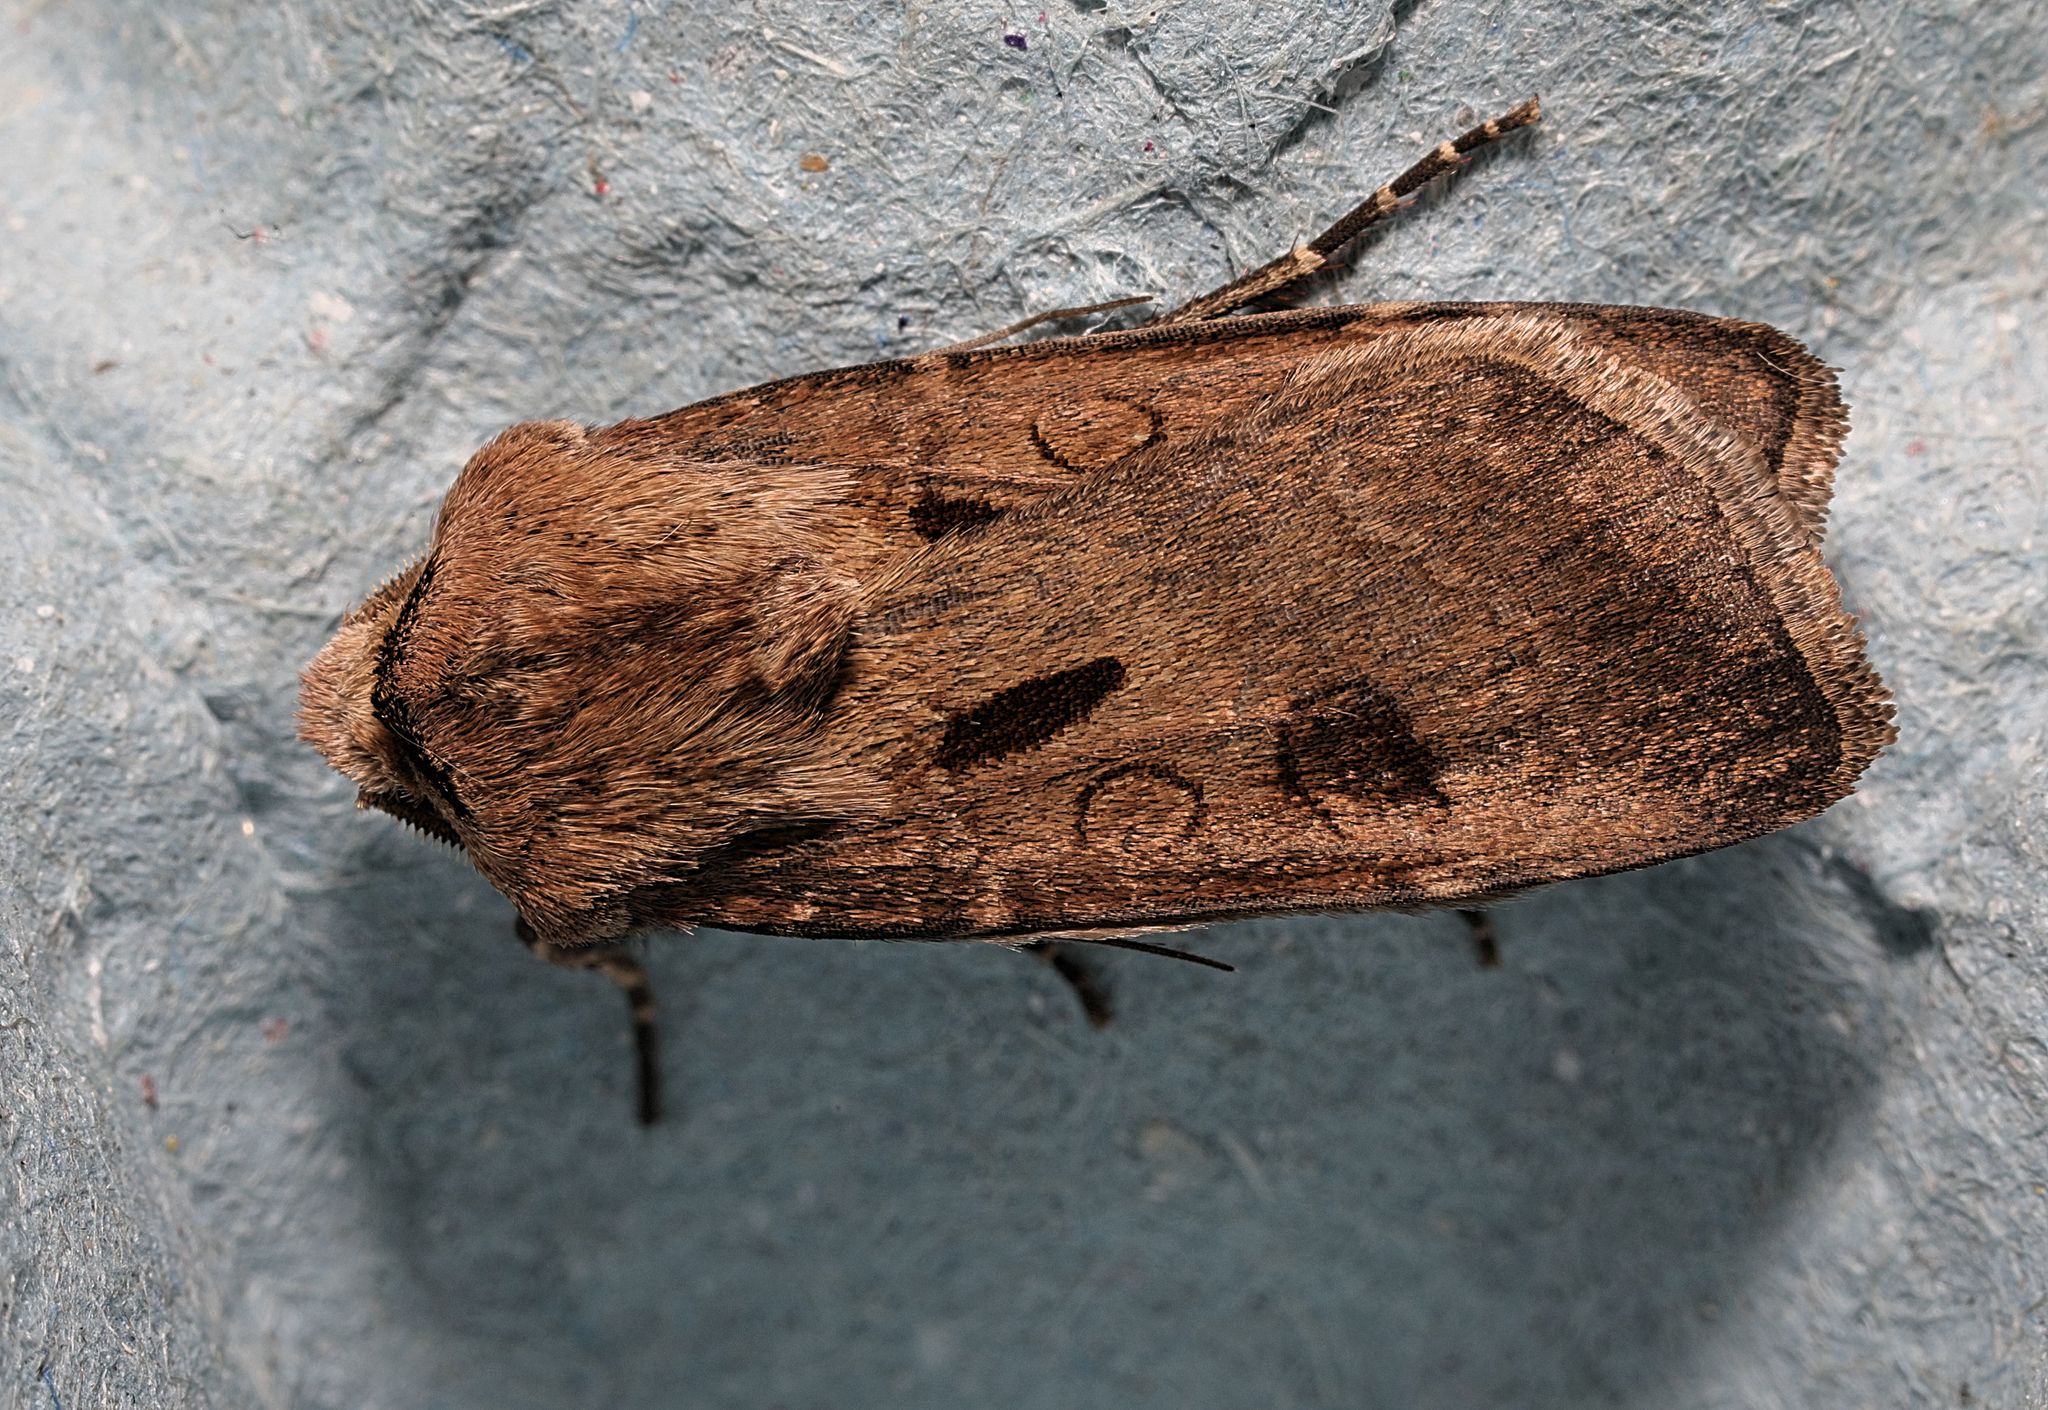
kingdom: Animalia
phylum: Arthropoda
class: Insecta
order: Lepidoptera
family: Noctuidae
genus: Agrotis
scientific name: Agrotis exclamationis
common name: Heart and dart
